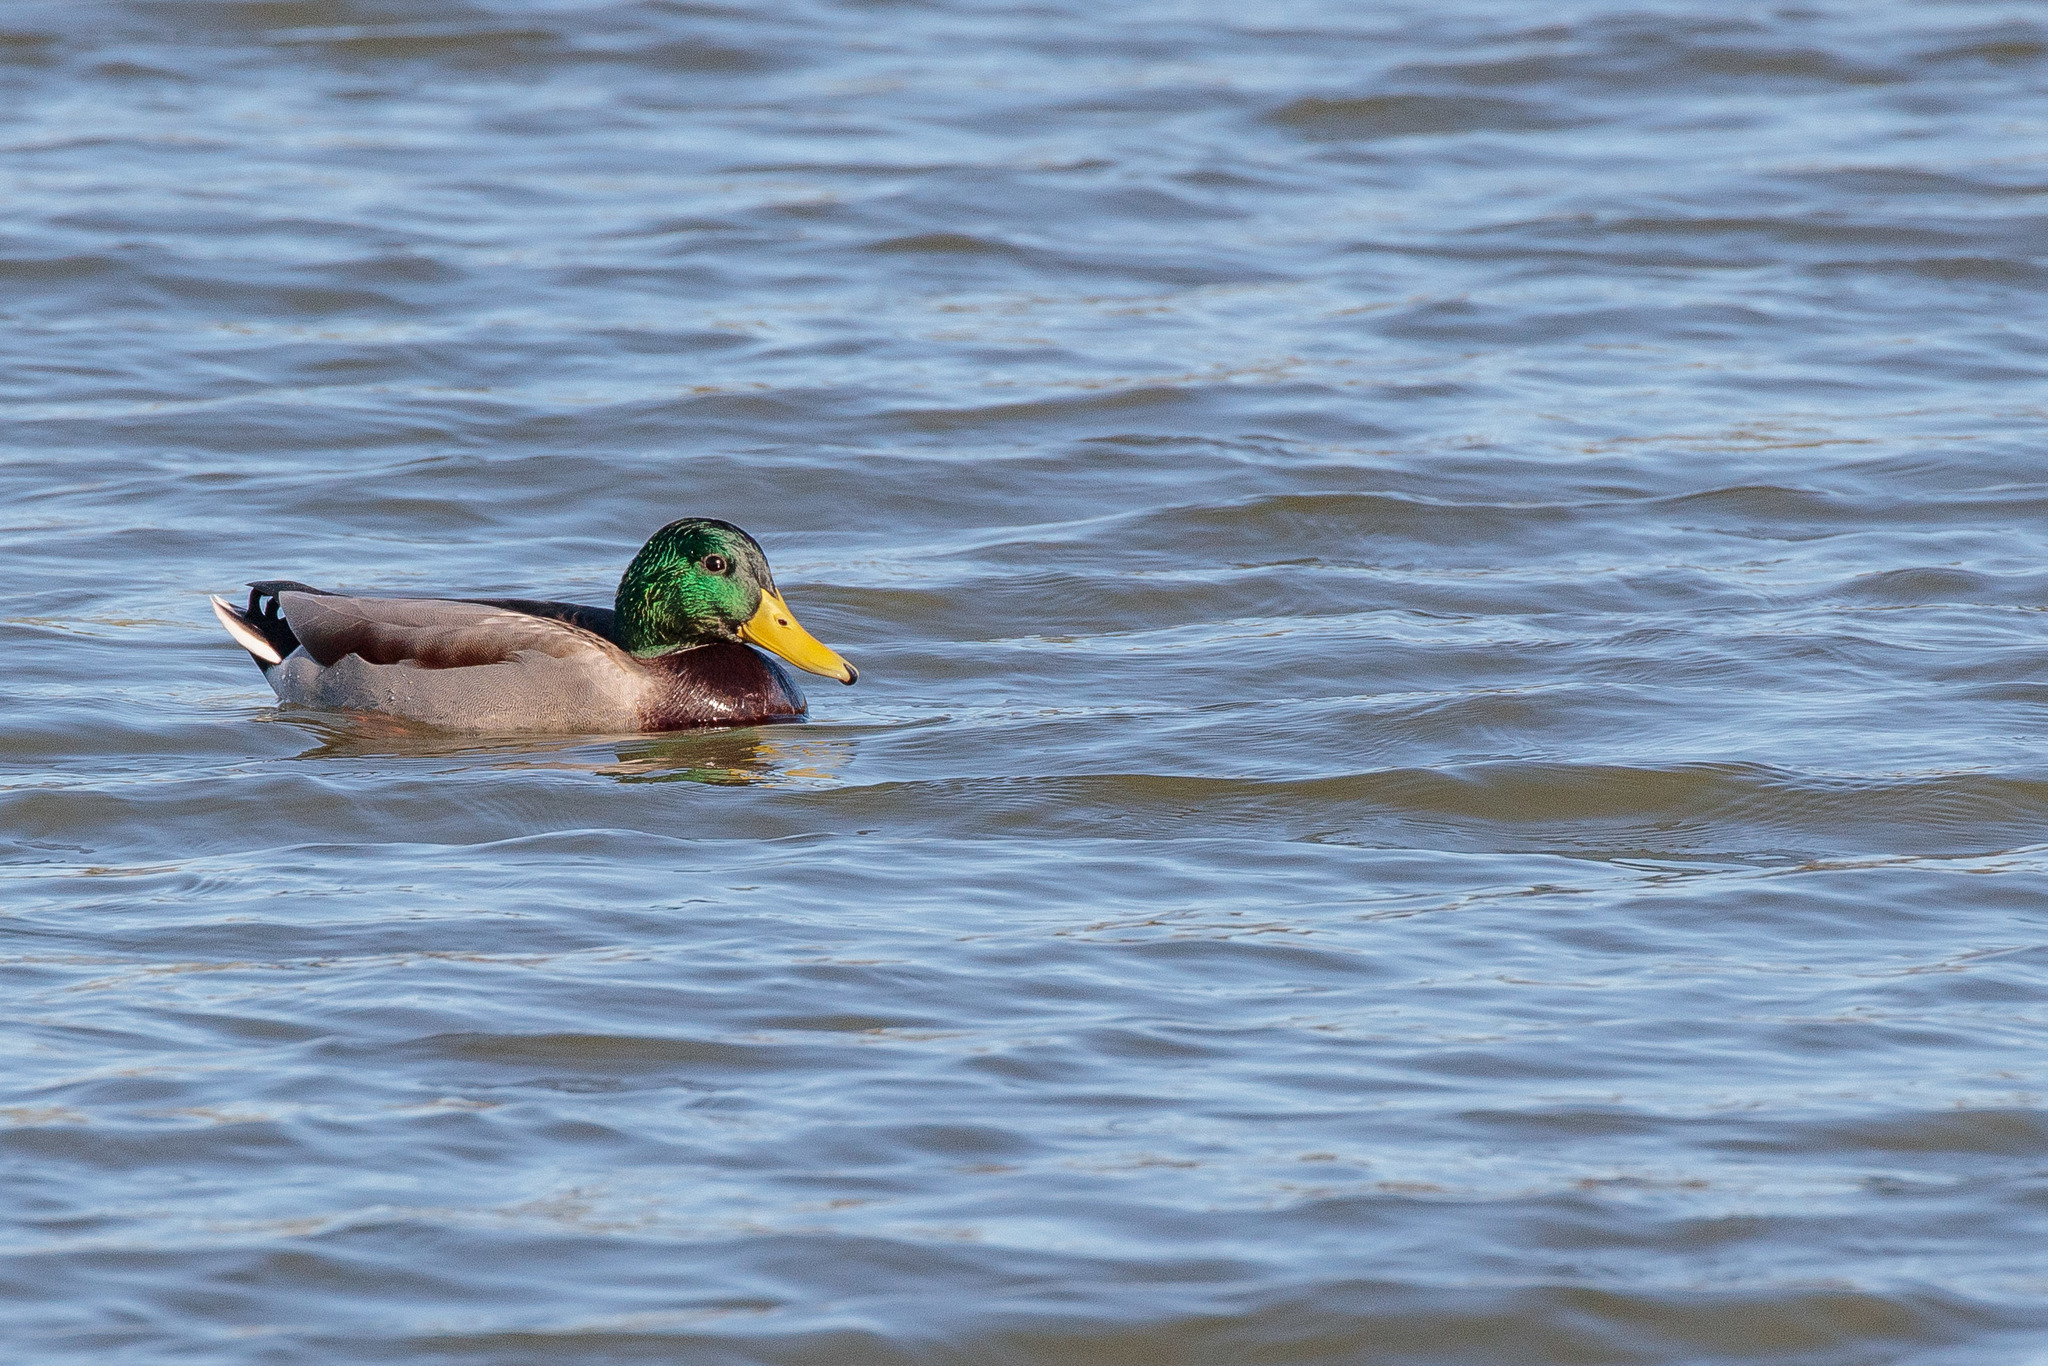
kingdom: Animalia
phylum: Chordata
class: Aves
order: Anseriformes
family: Anatidae
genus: Anas
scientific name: Anas platyrhynchos
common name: Mallard
